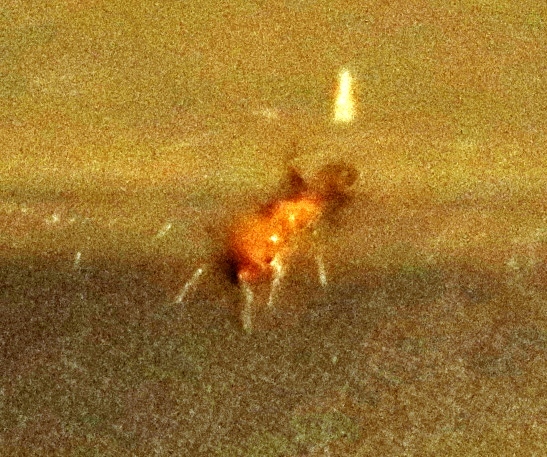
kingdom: Animalia
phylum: Arthropoda
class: Insecta
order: Hymenoptera
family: Formicidae
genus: Pheidole
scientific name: Pheidole megacephala
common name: Bigheaded ant
